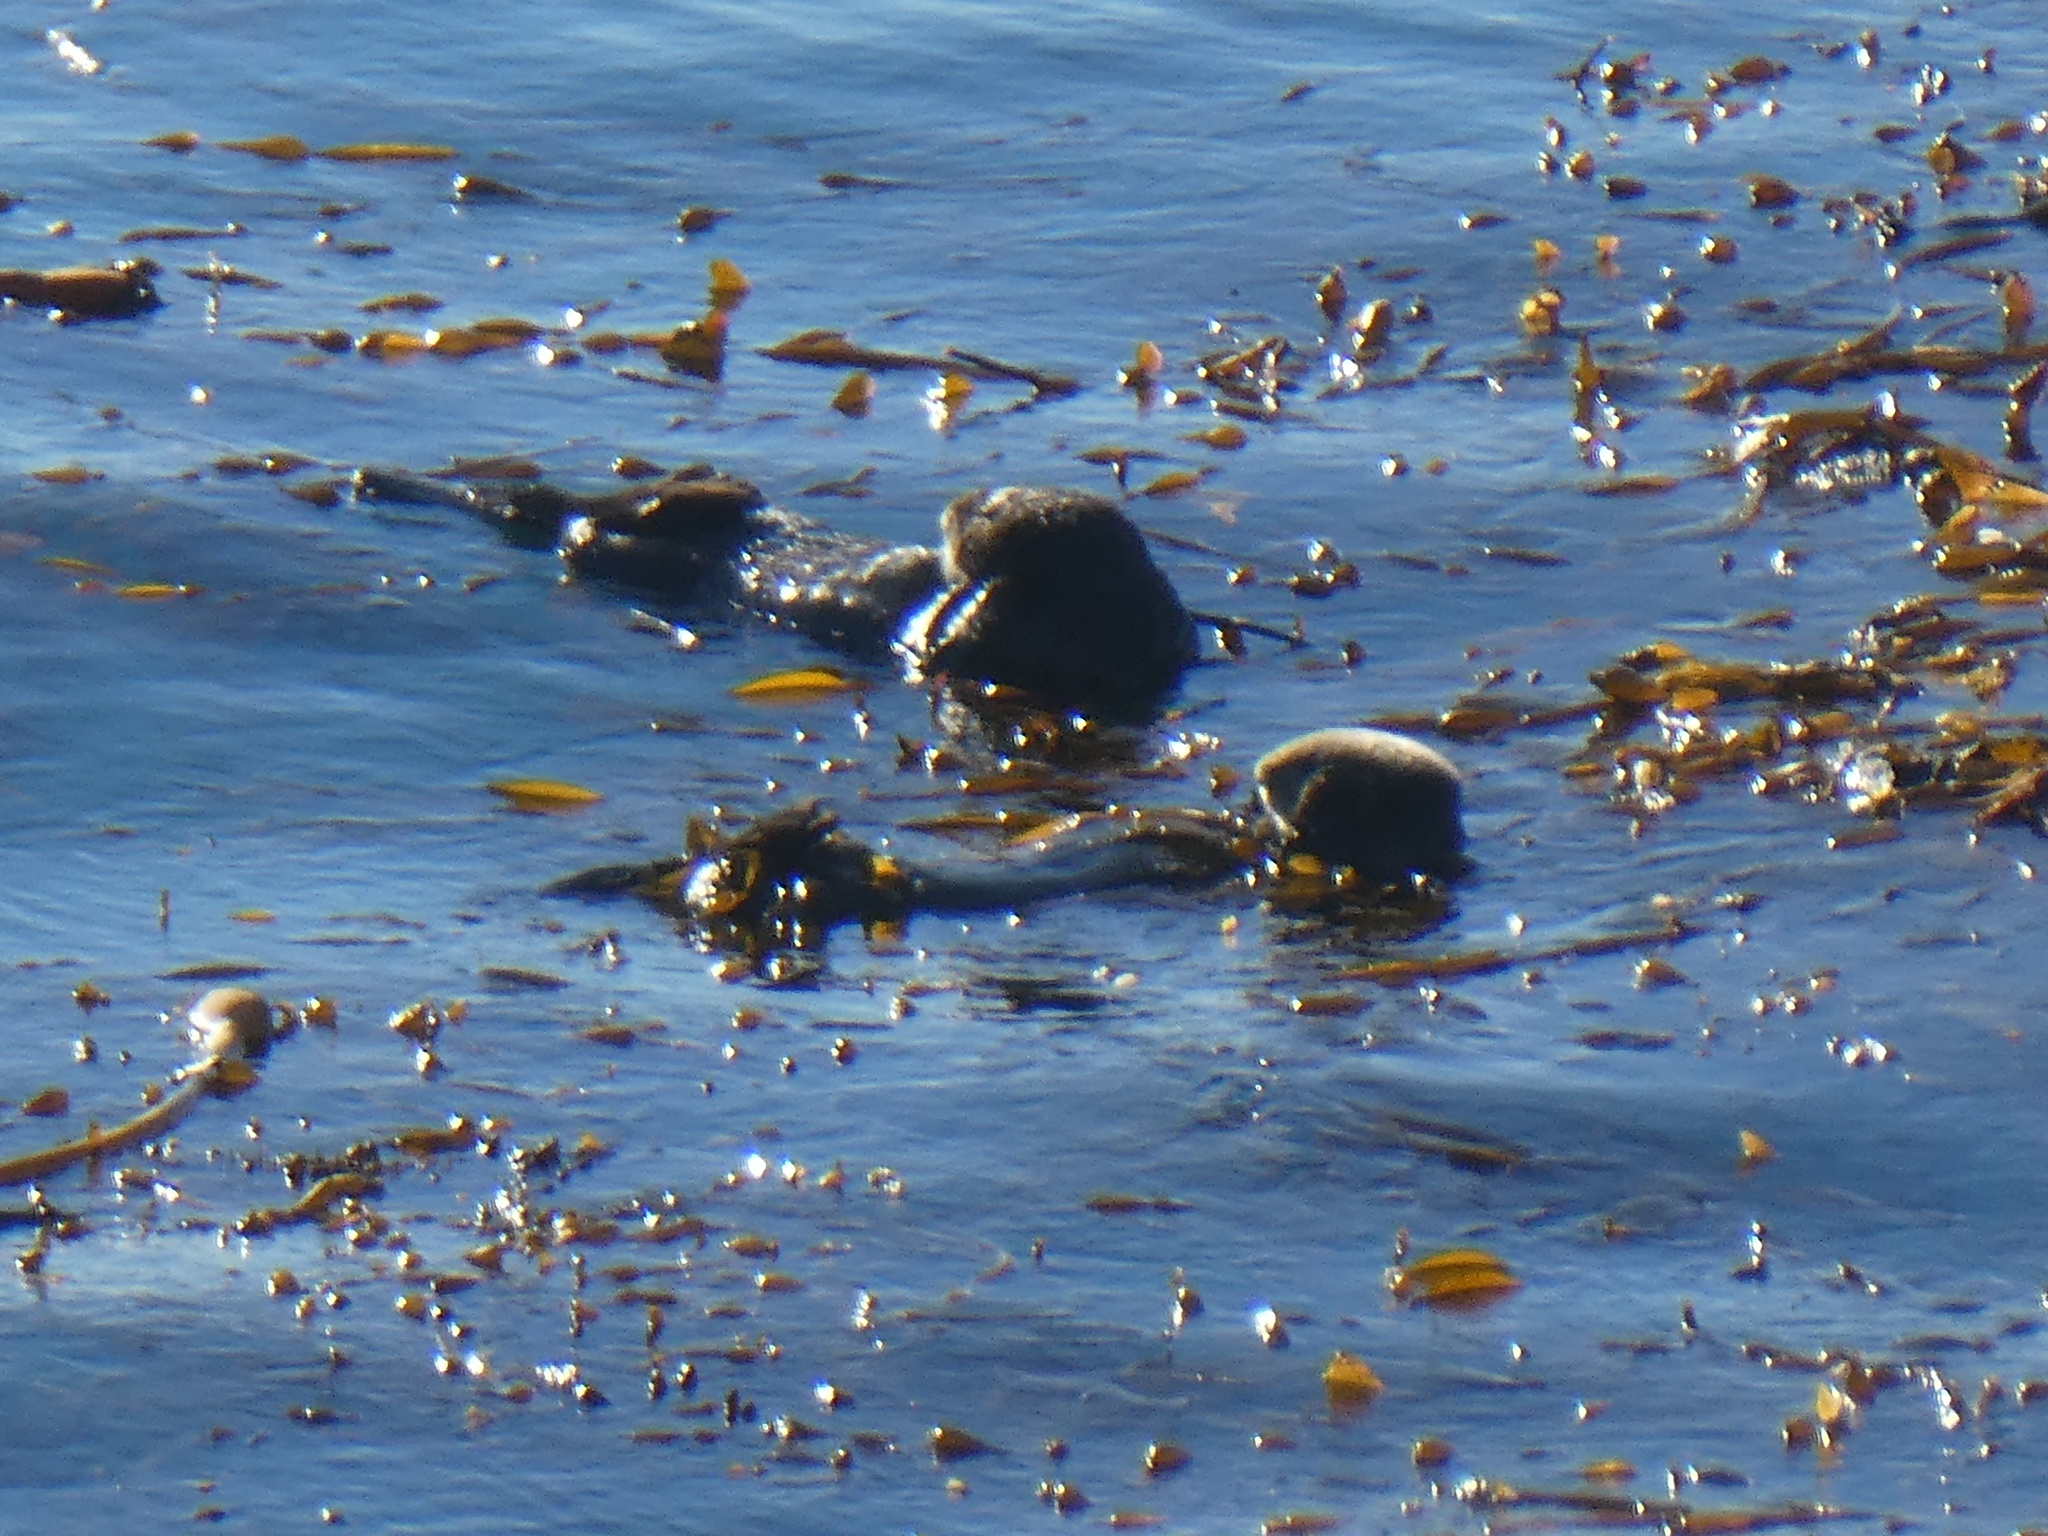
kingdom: Animalia
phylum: Chordata
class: Mammalia
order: Carnivora
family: Mustelidae
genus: Enhydra
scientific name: Enhydra lutris
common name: Sea otter
